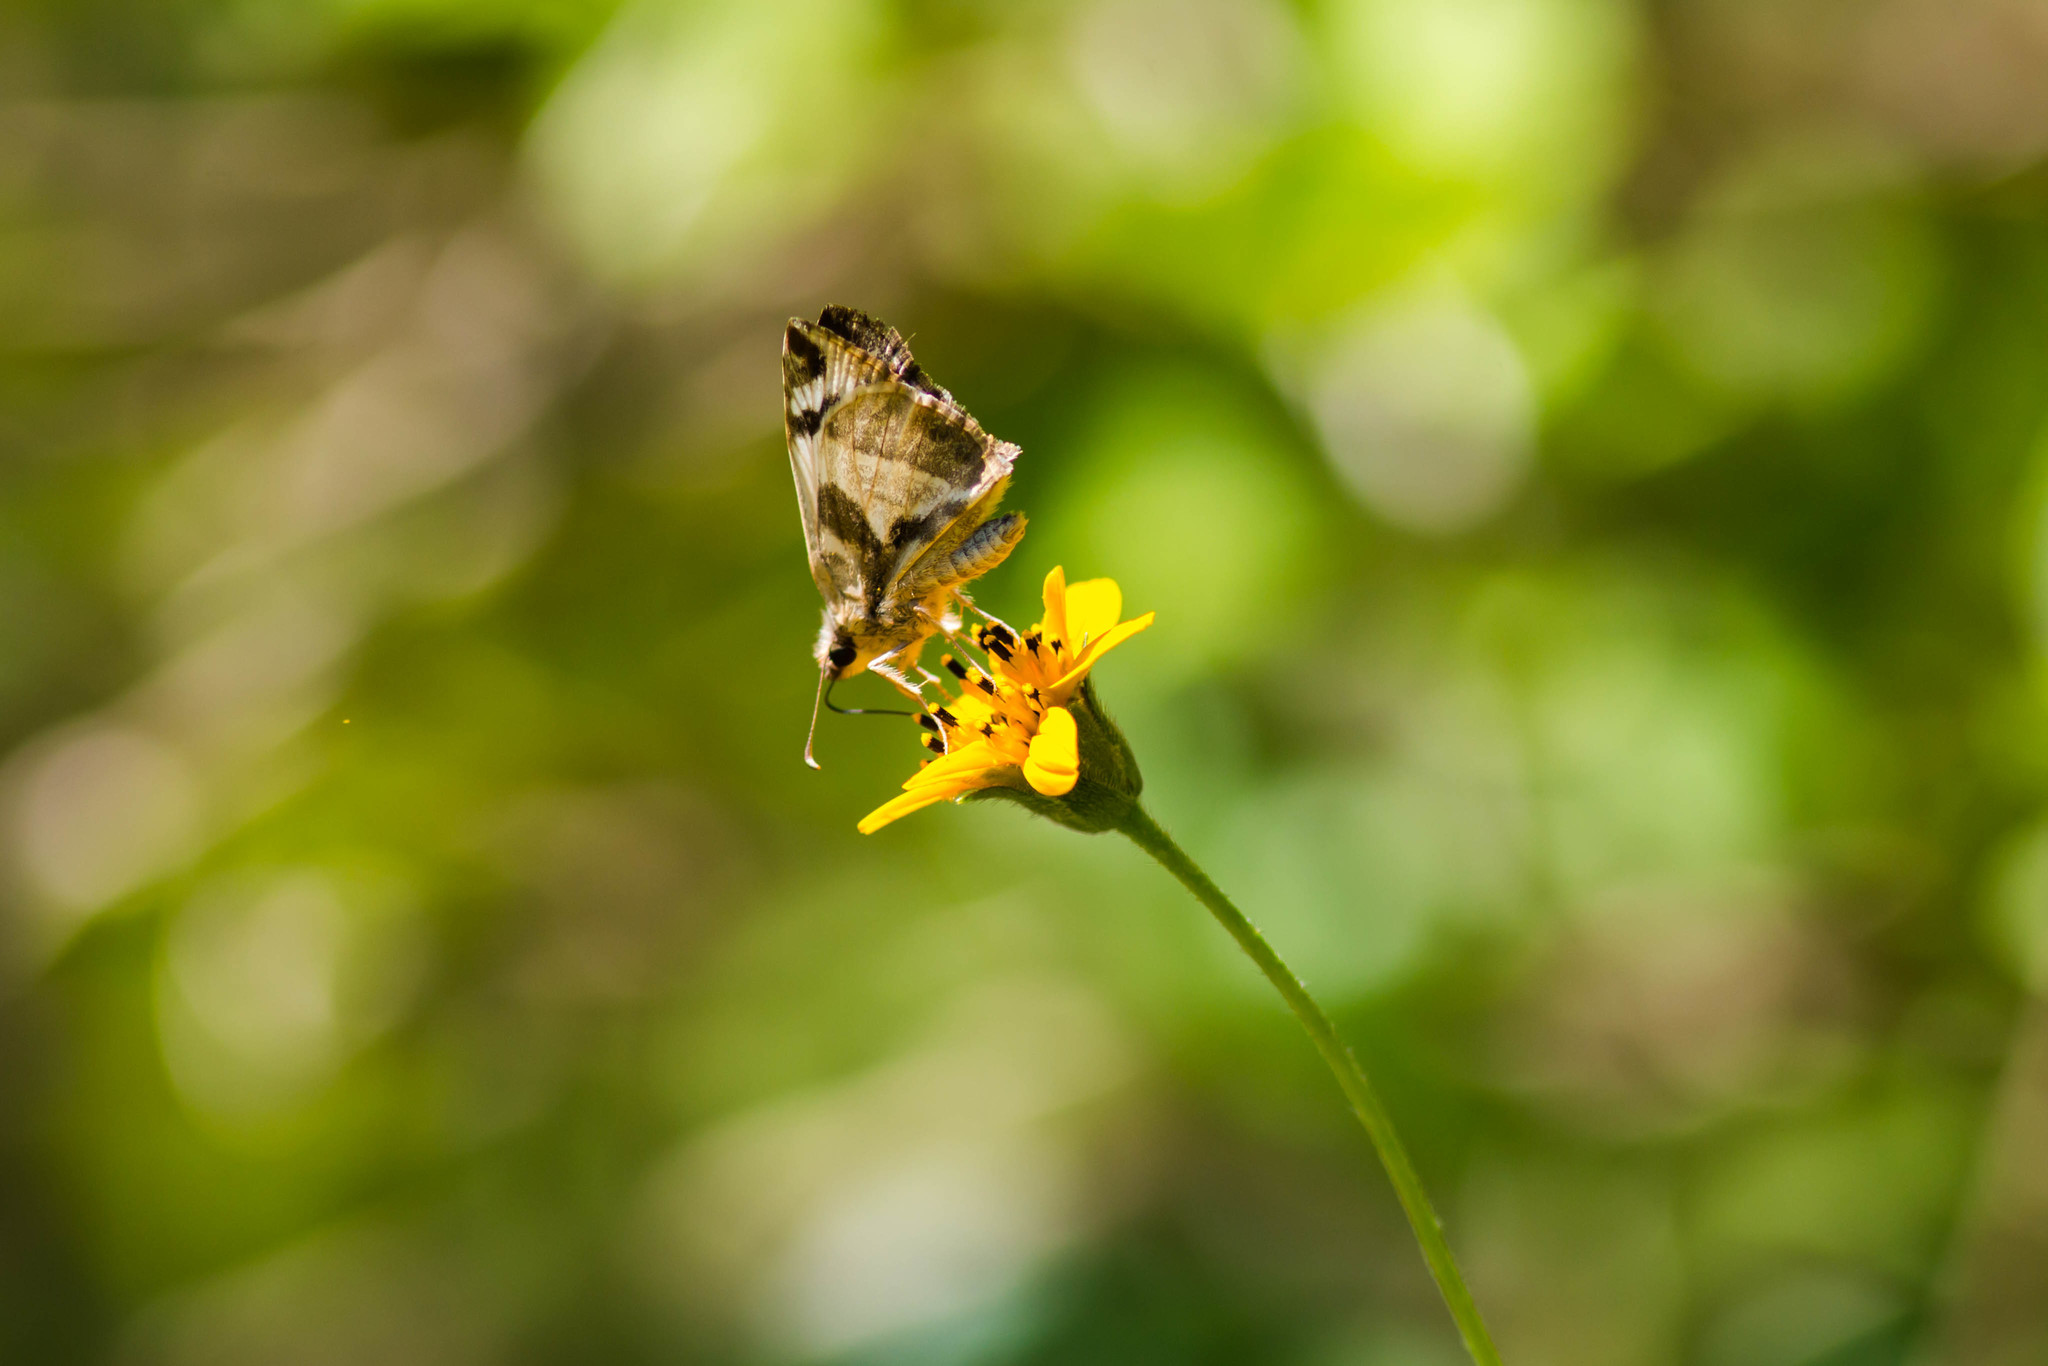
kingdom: Animalia
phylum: Arthropoda
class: Insecta
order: Lepidoptera
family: Hesperiidae
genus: Heliopetes
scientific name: Heliopetes laviana
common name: Laviana white-skipper
